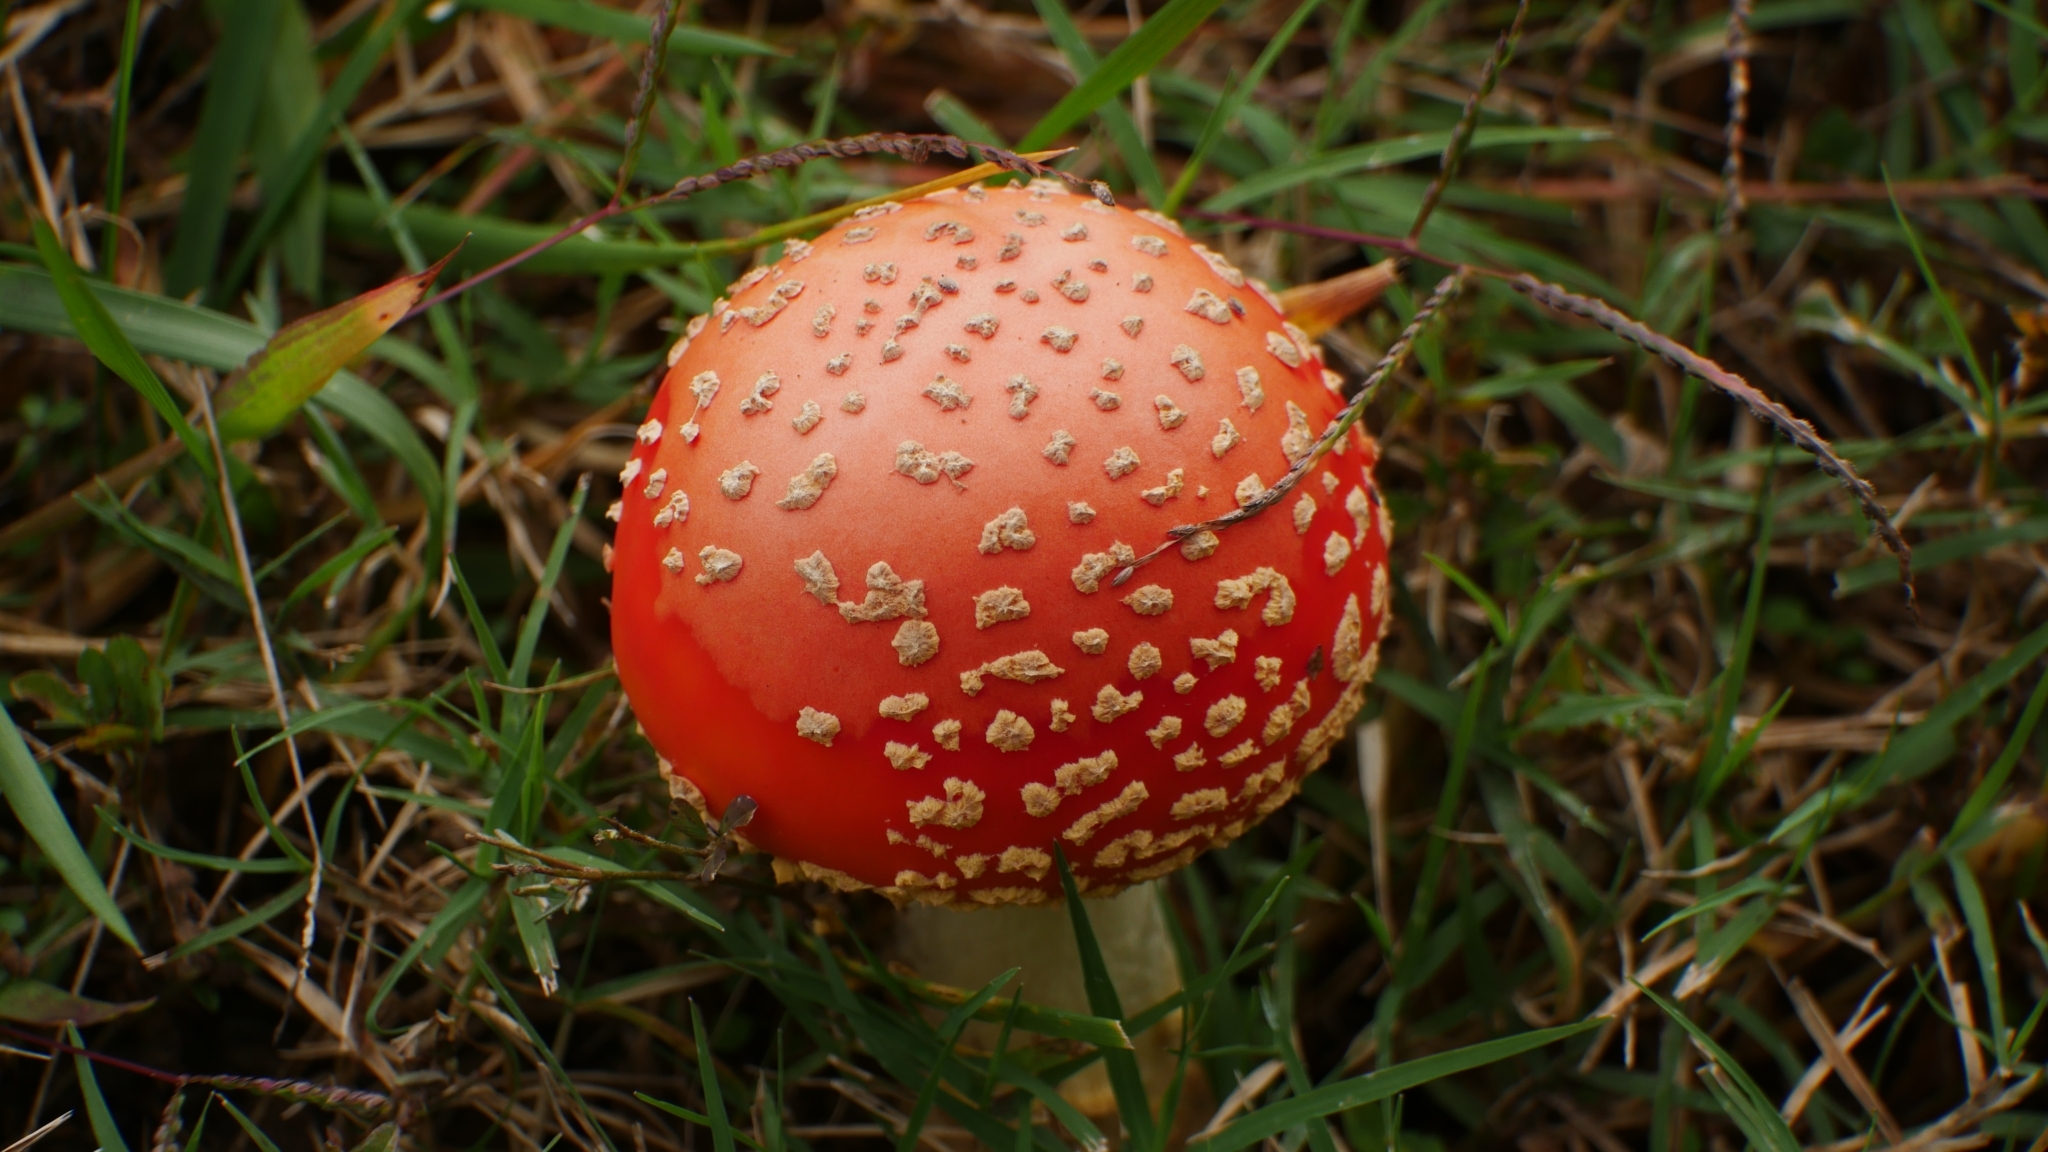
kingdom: Fungi
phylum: Basidiomycota
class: Agaricomycetes
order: Agaricales
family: Amanitaceae
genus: Amanita
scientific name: Amanita persicina
